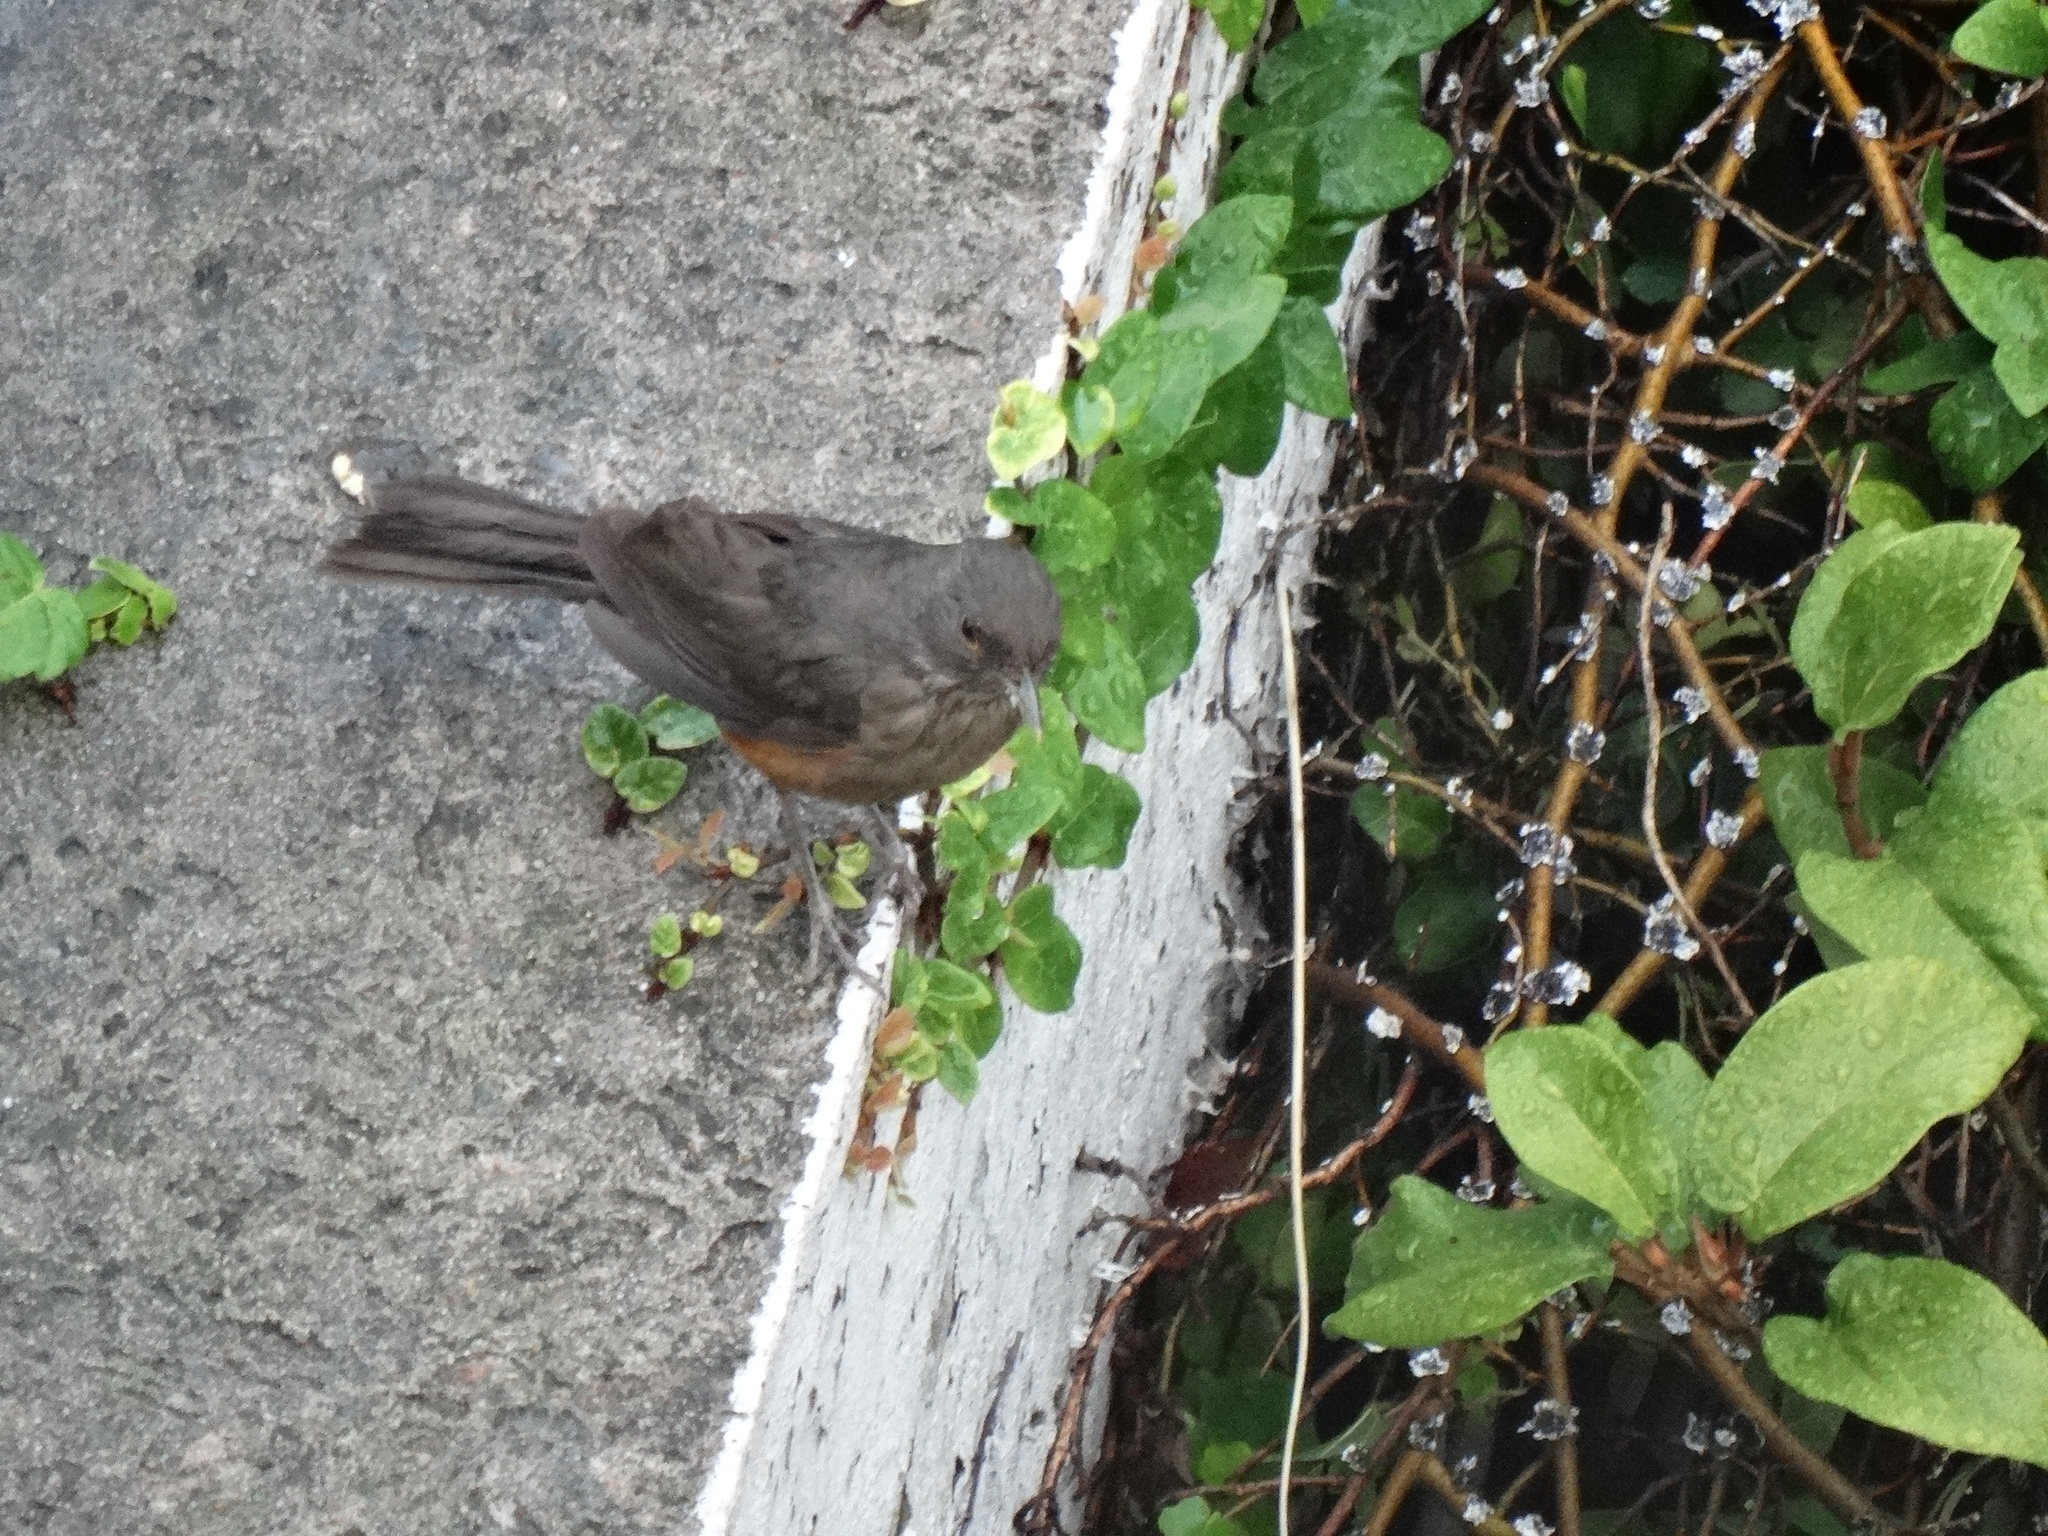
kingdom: Animalia
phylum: Chordata
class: Aves
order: Passeriformes
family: Turdidae
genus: Turdus
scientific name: Turdus rufiventris
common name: Rufous-bellied thrush
